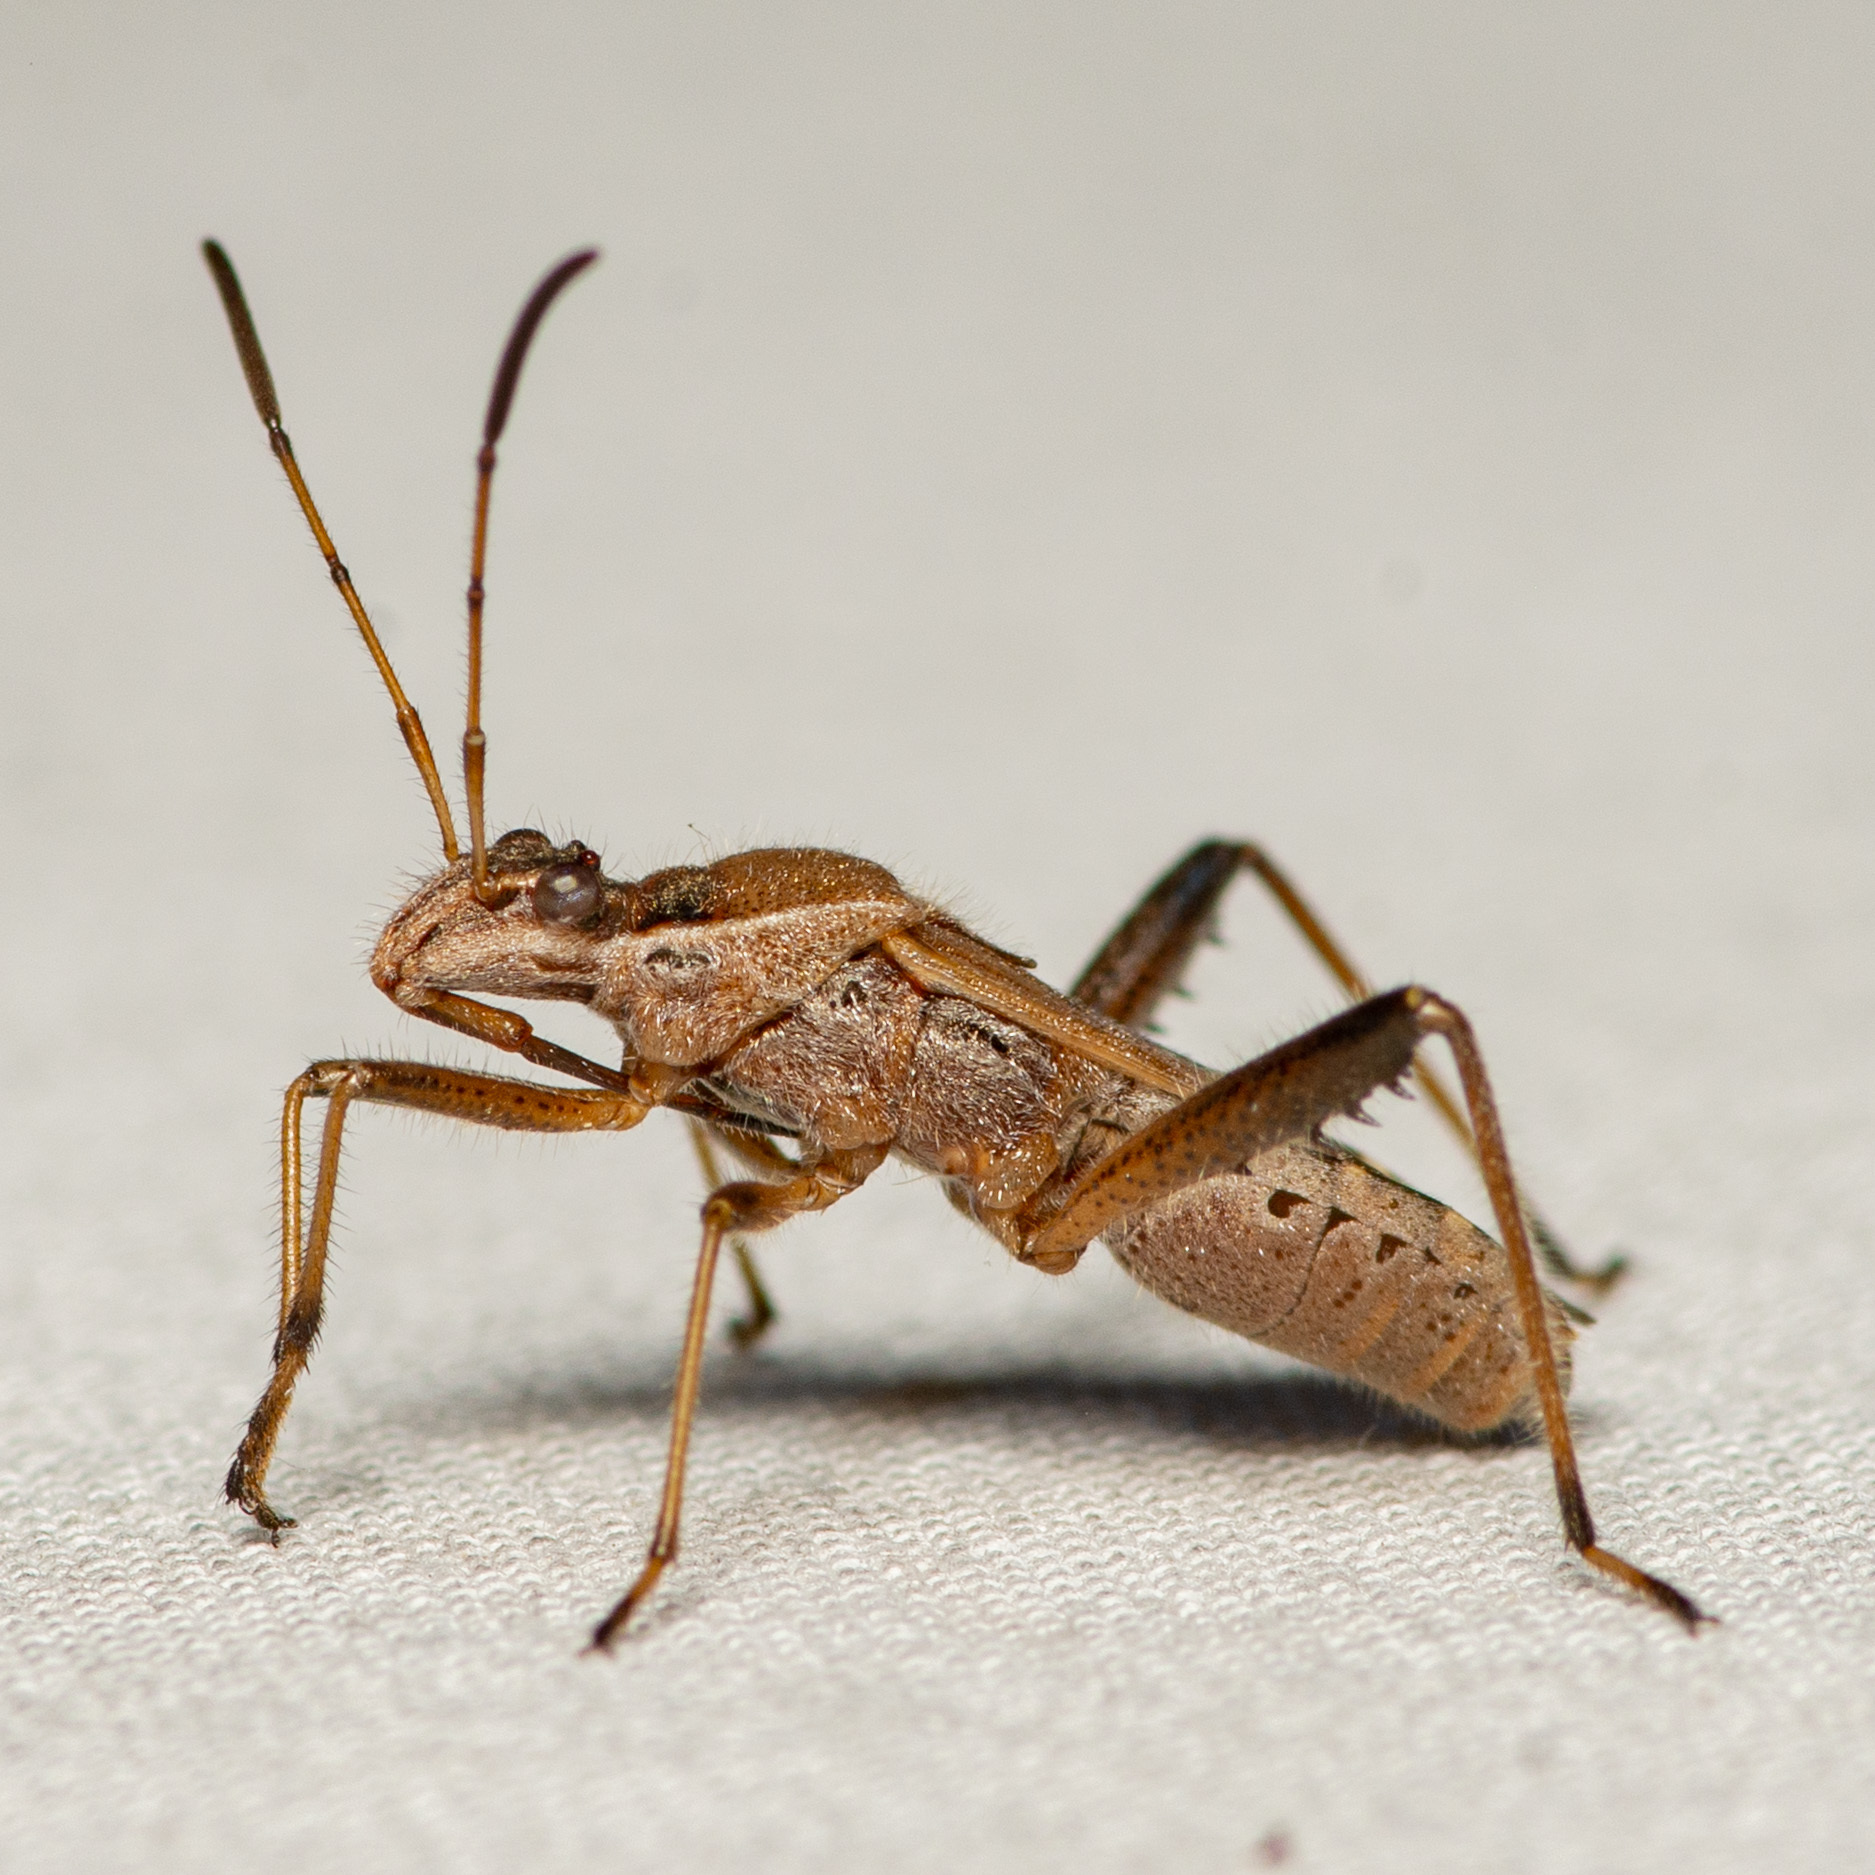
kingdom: Animalia
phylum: Arthropoda
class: Insecta
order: Hemiptera
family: Alydidae
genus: Alydus
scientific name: Alydus pilosulus
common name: Broad-headed bug
